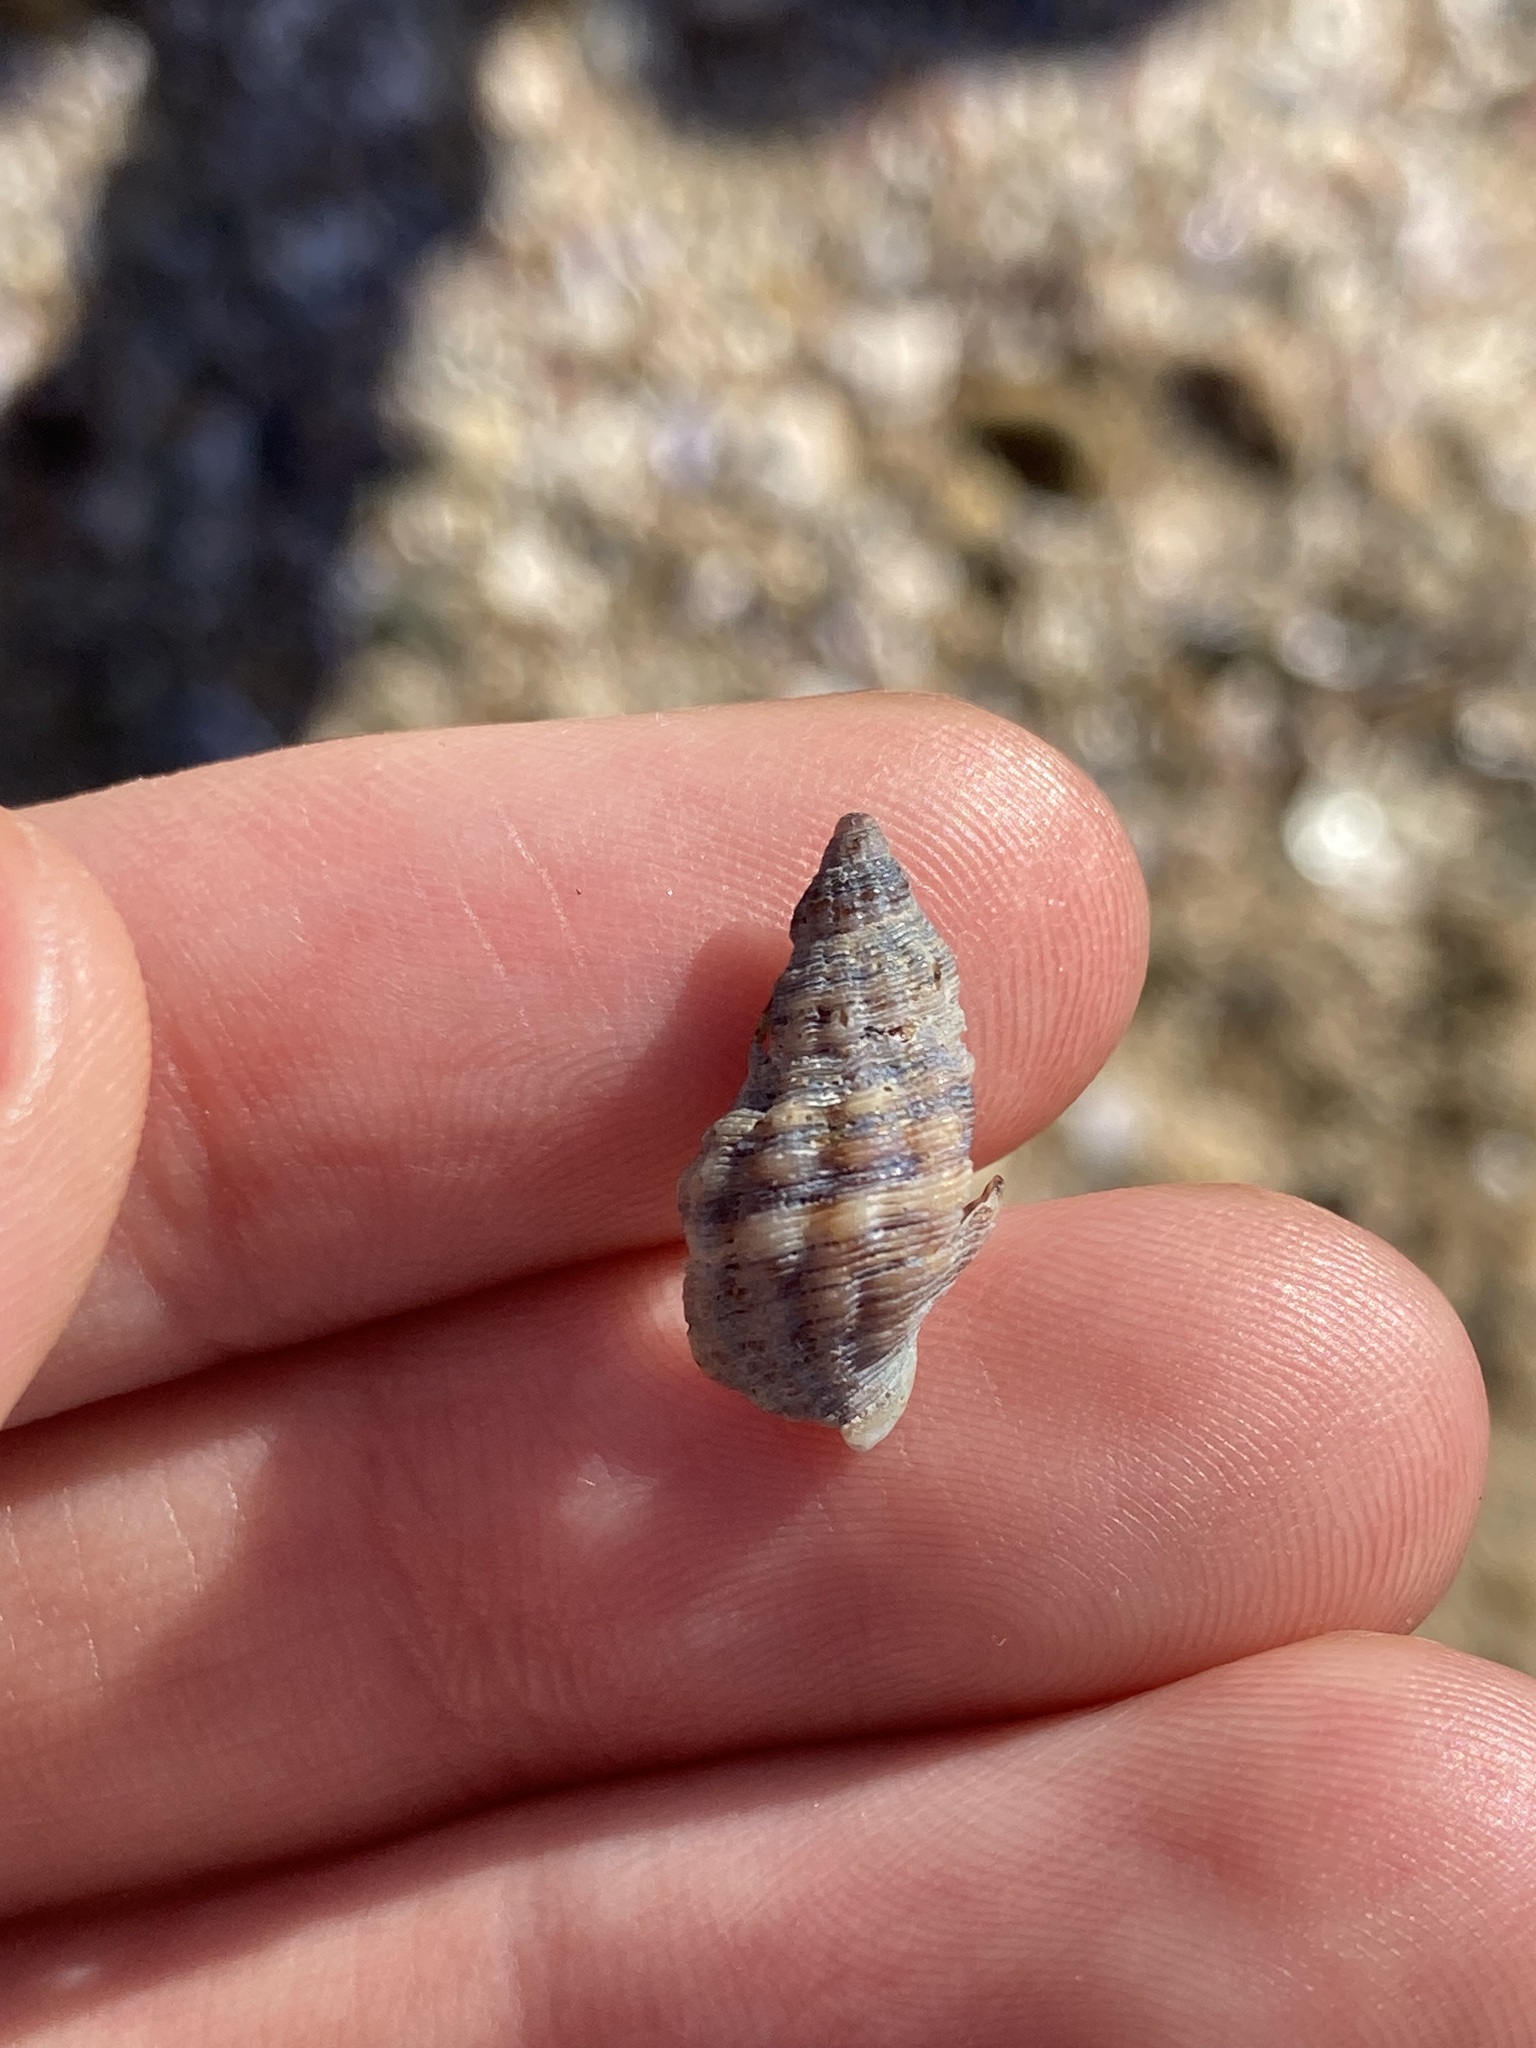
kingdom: Animalia
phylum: Mollusca
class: Gastropoda
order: Neogastropoda
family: Muricidae
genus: Agnewia
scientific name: Agnewia tritoniformis
